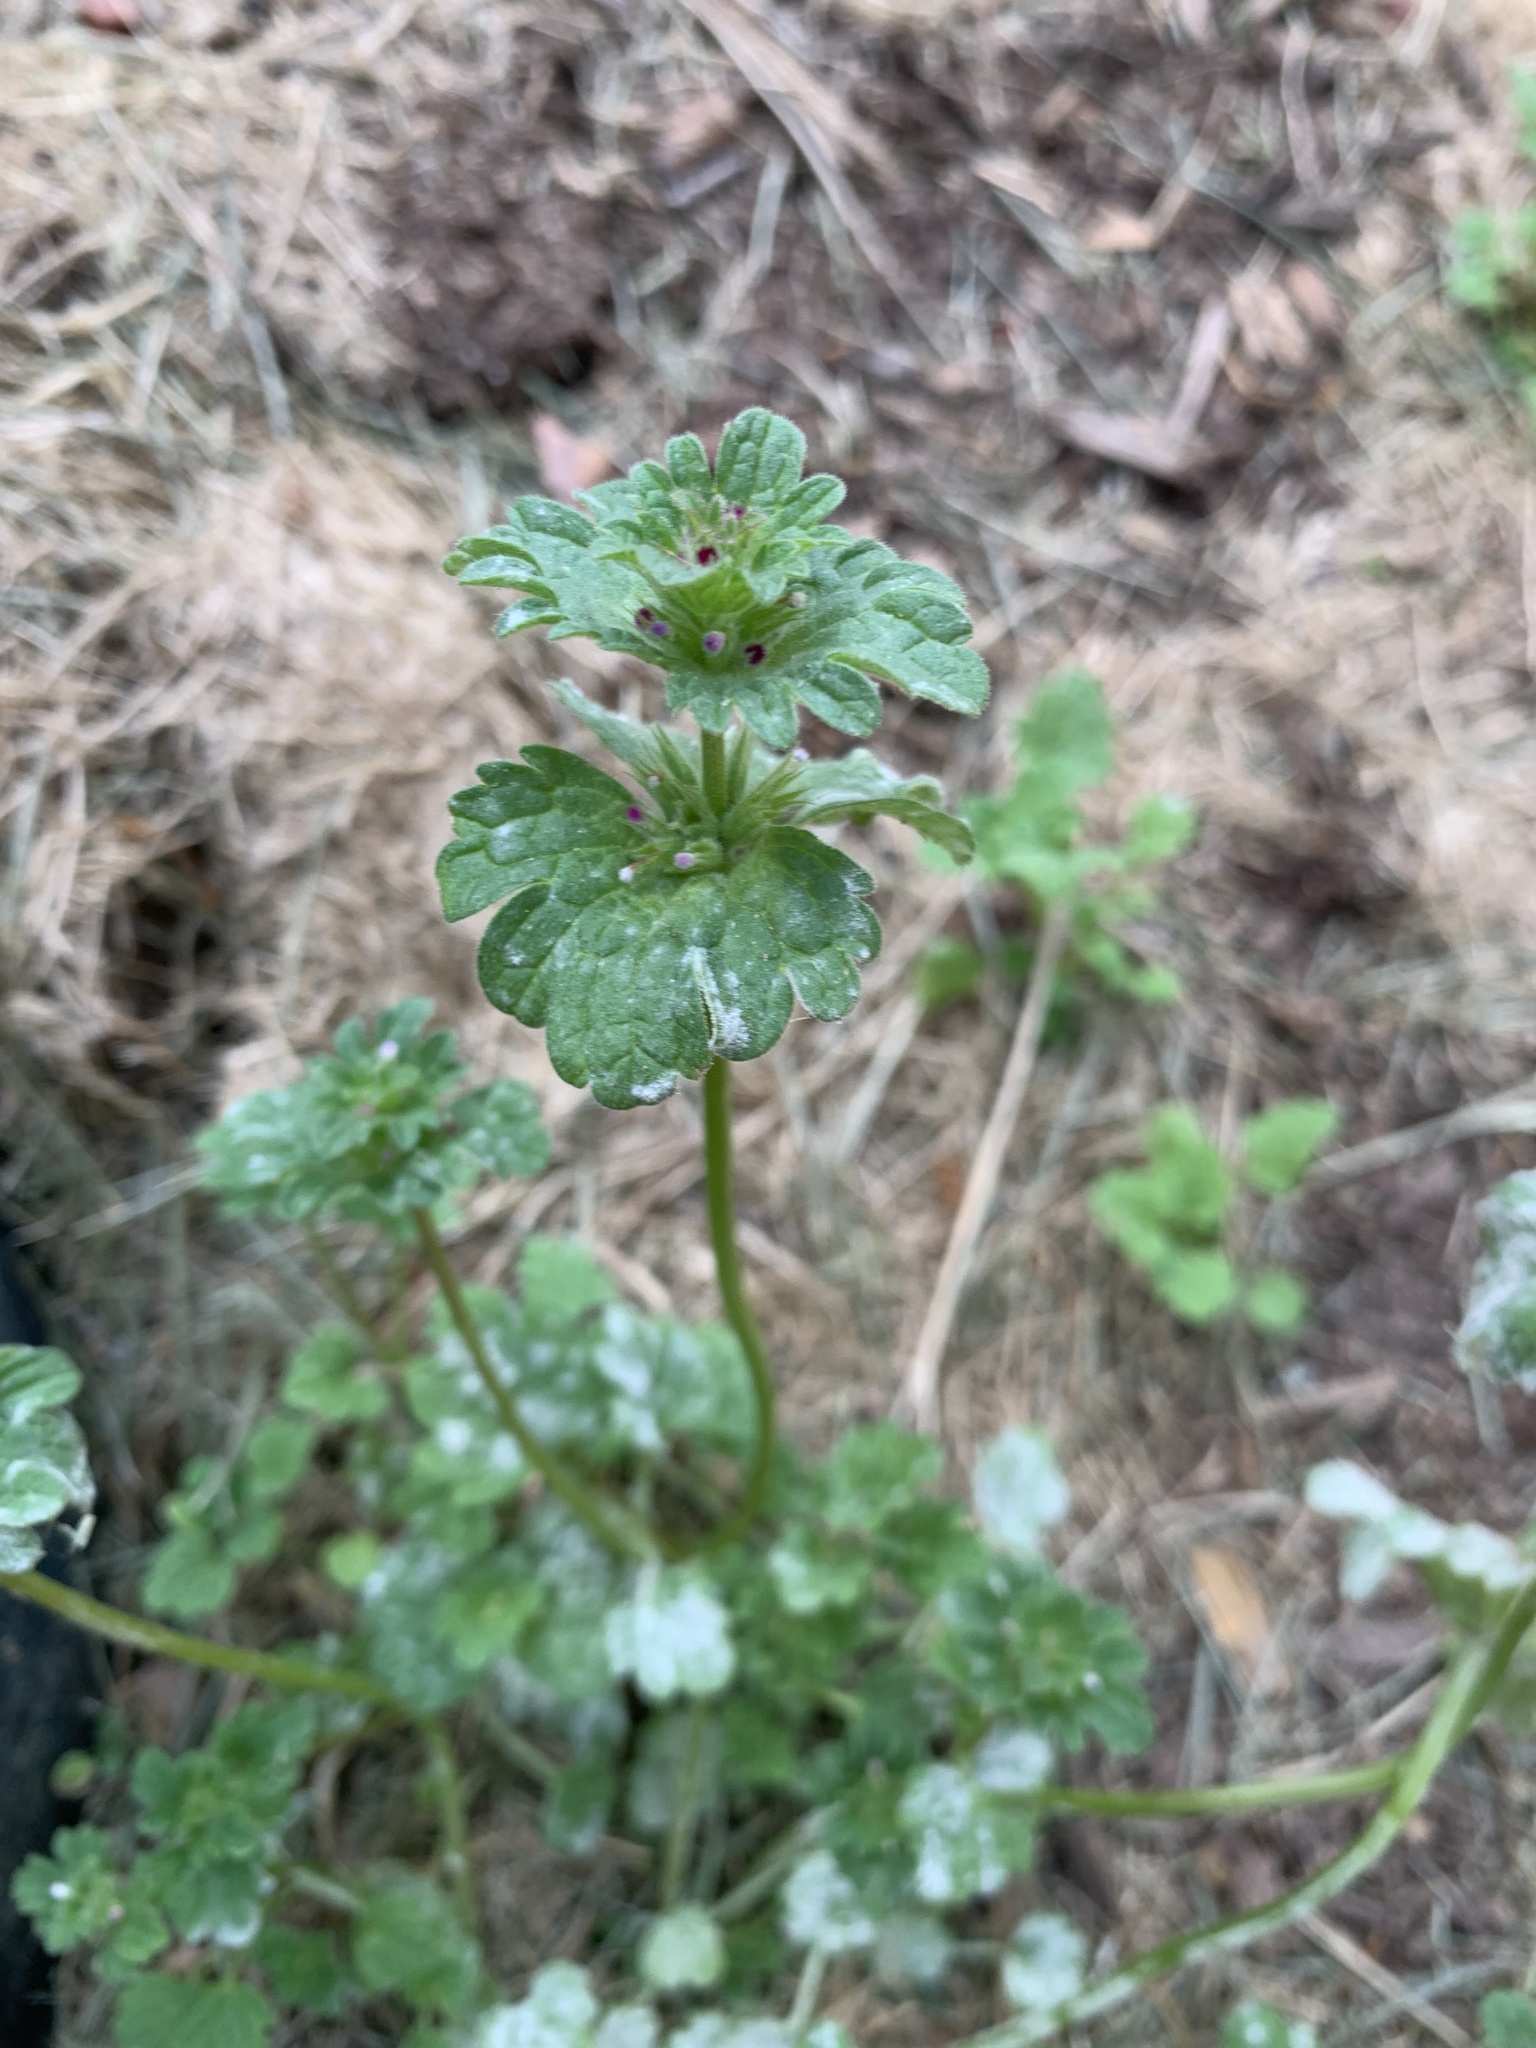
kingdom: Plantae
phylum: Tracheophyta
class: Magnoliopsida
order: Lamiales
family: Lamiaceae
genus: Lamium
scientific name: Lamium amplexicaule
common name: Henbit dead-nettle
